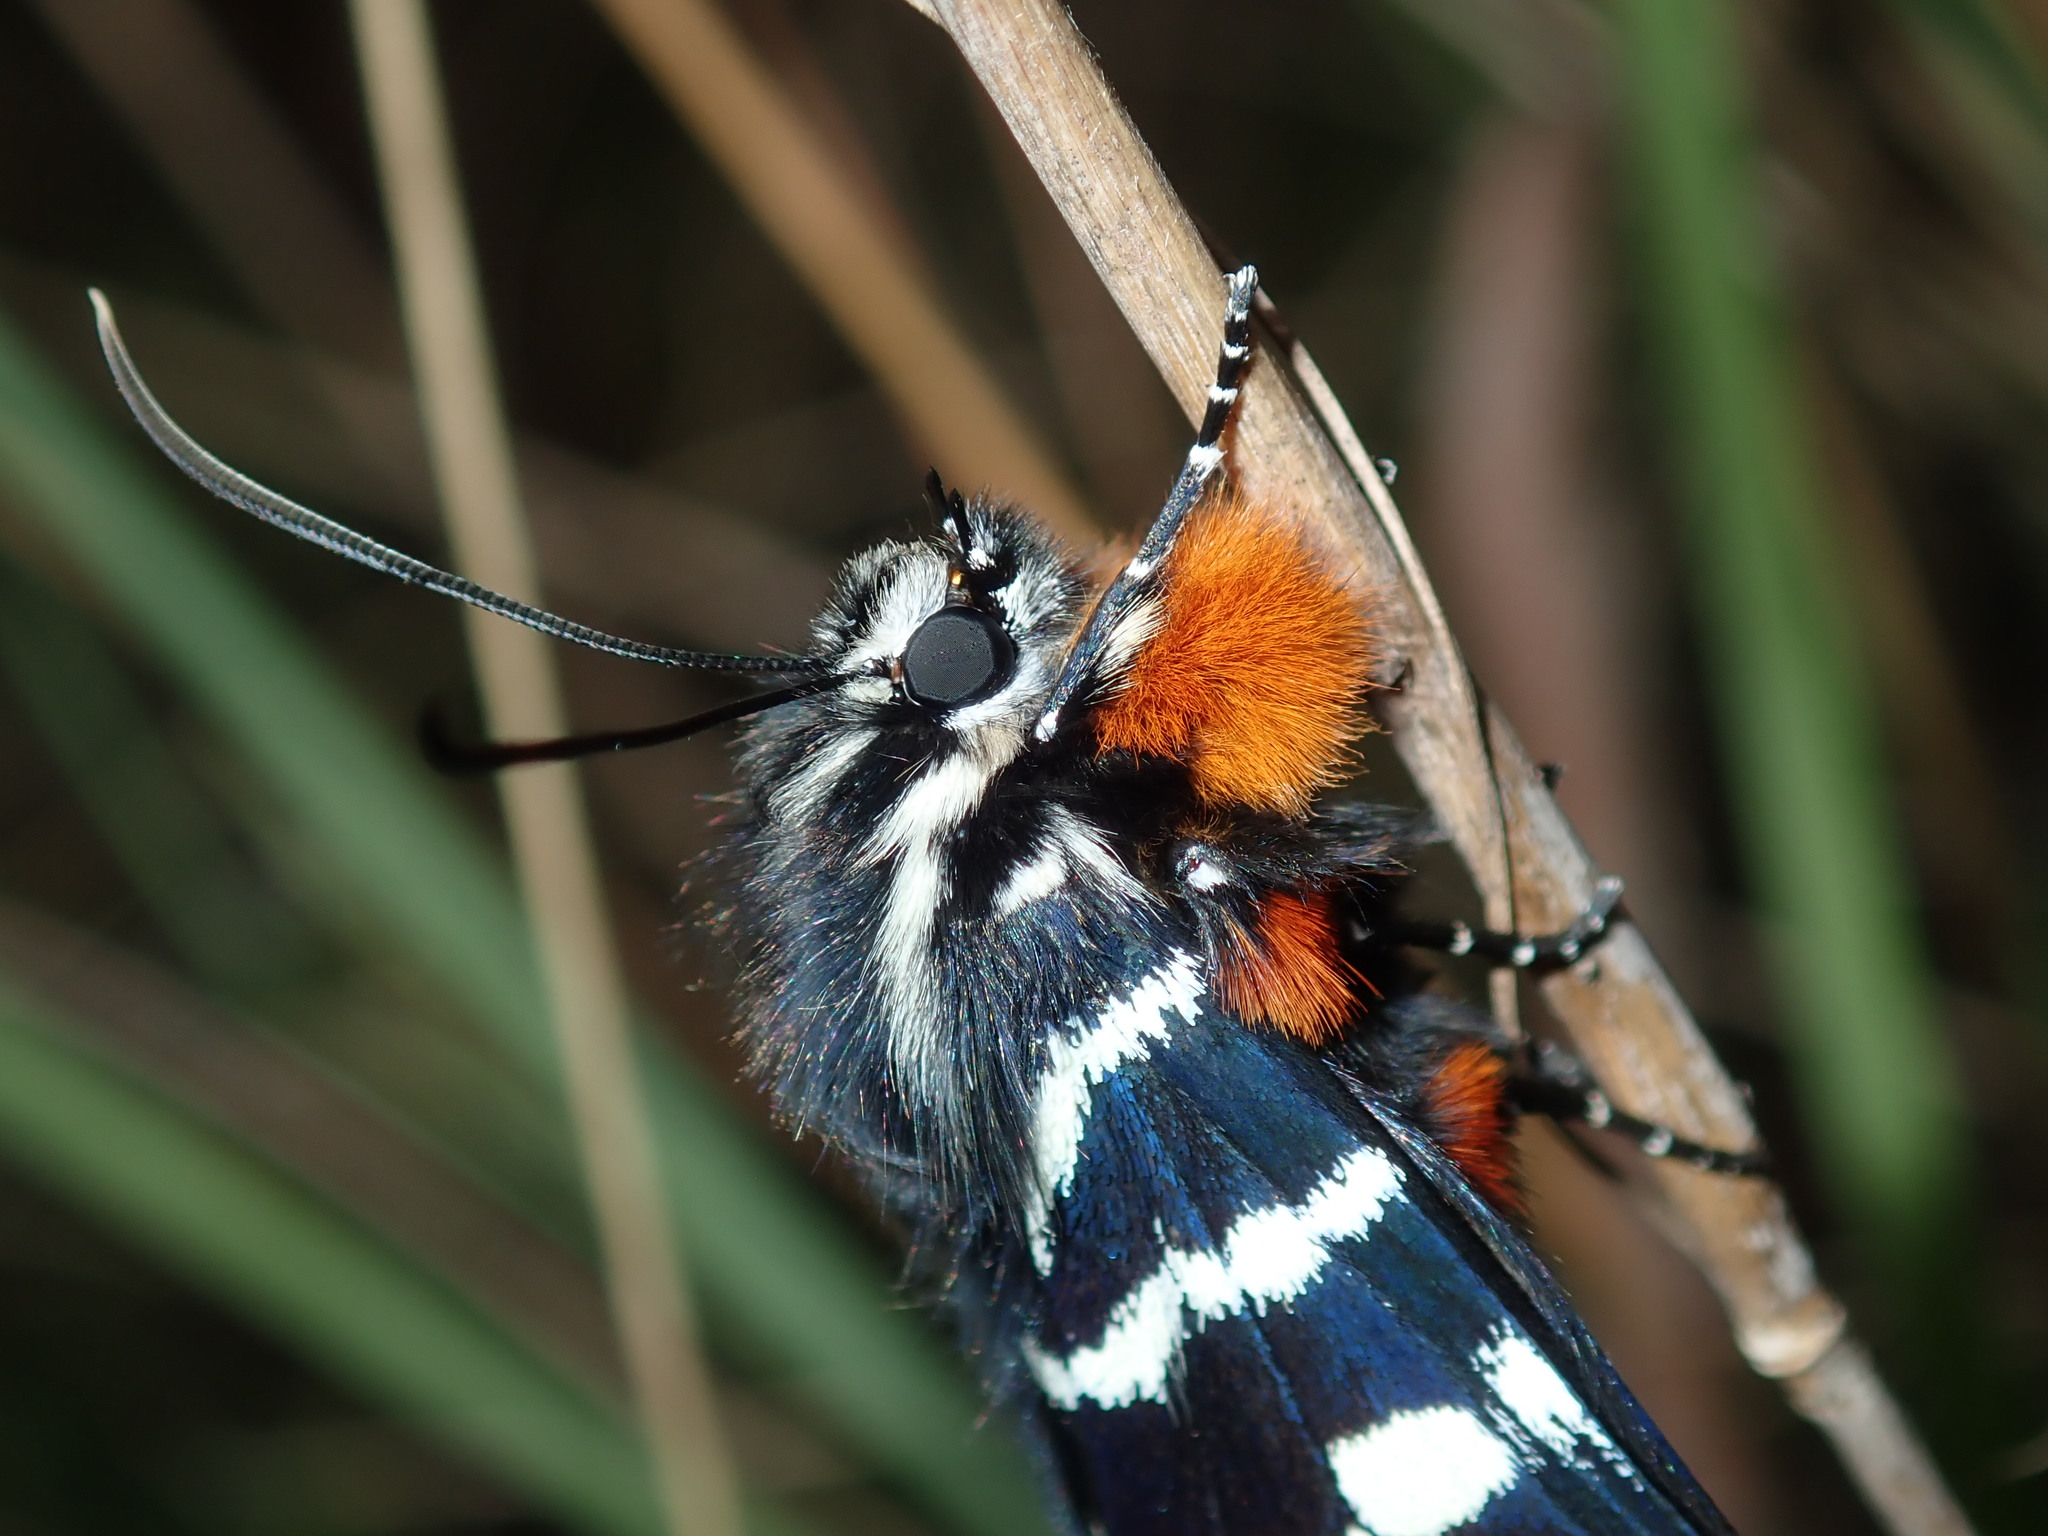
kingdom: Animalia
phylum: Arthropoda
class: Insecta
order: Lepidoptera
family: Noctuidae
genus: Comocrus
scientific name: Comocrus behri
